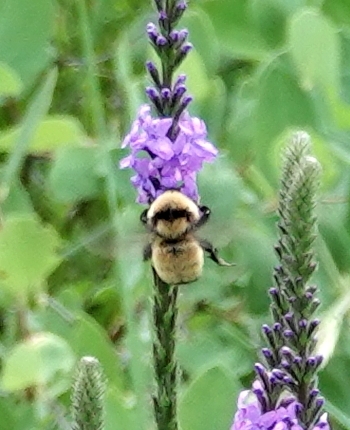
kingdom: Animalia
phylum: Arthropoda
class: Insecta
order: Hymenoptera
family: Apidae
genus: Bombus
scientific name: Bombus fervidus
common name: Yellow bumble bee
